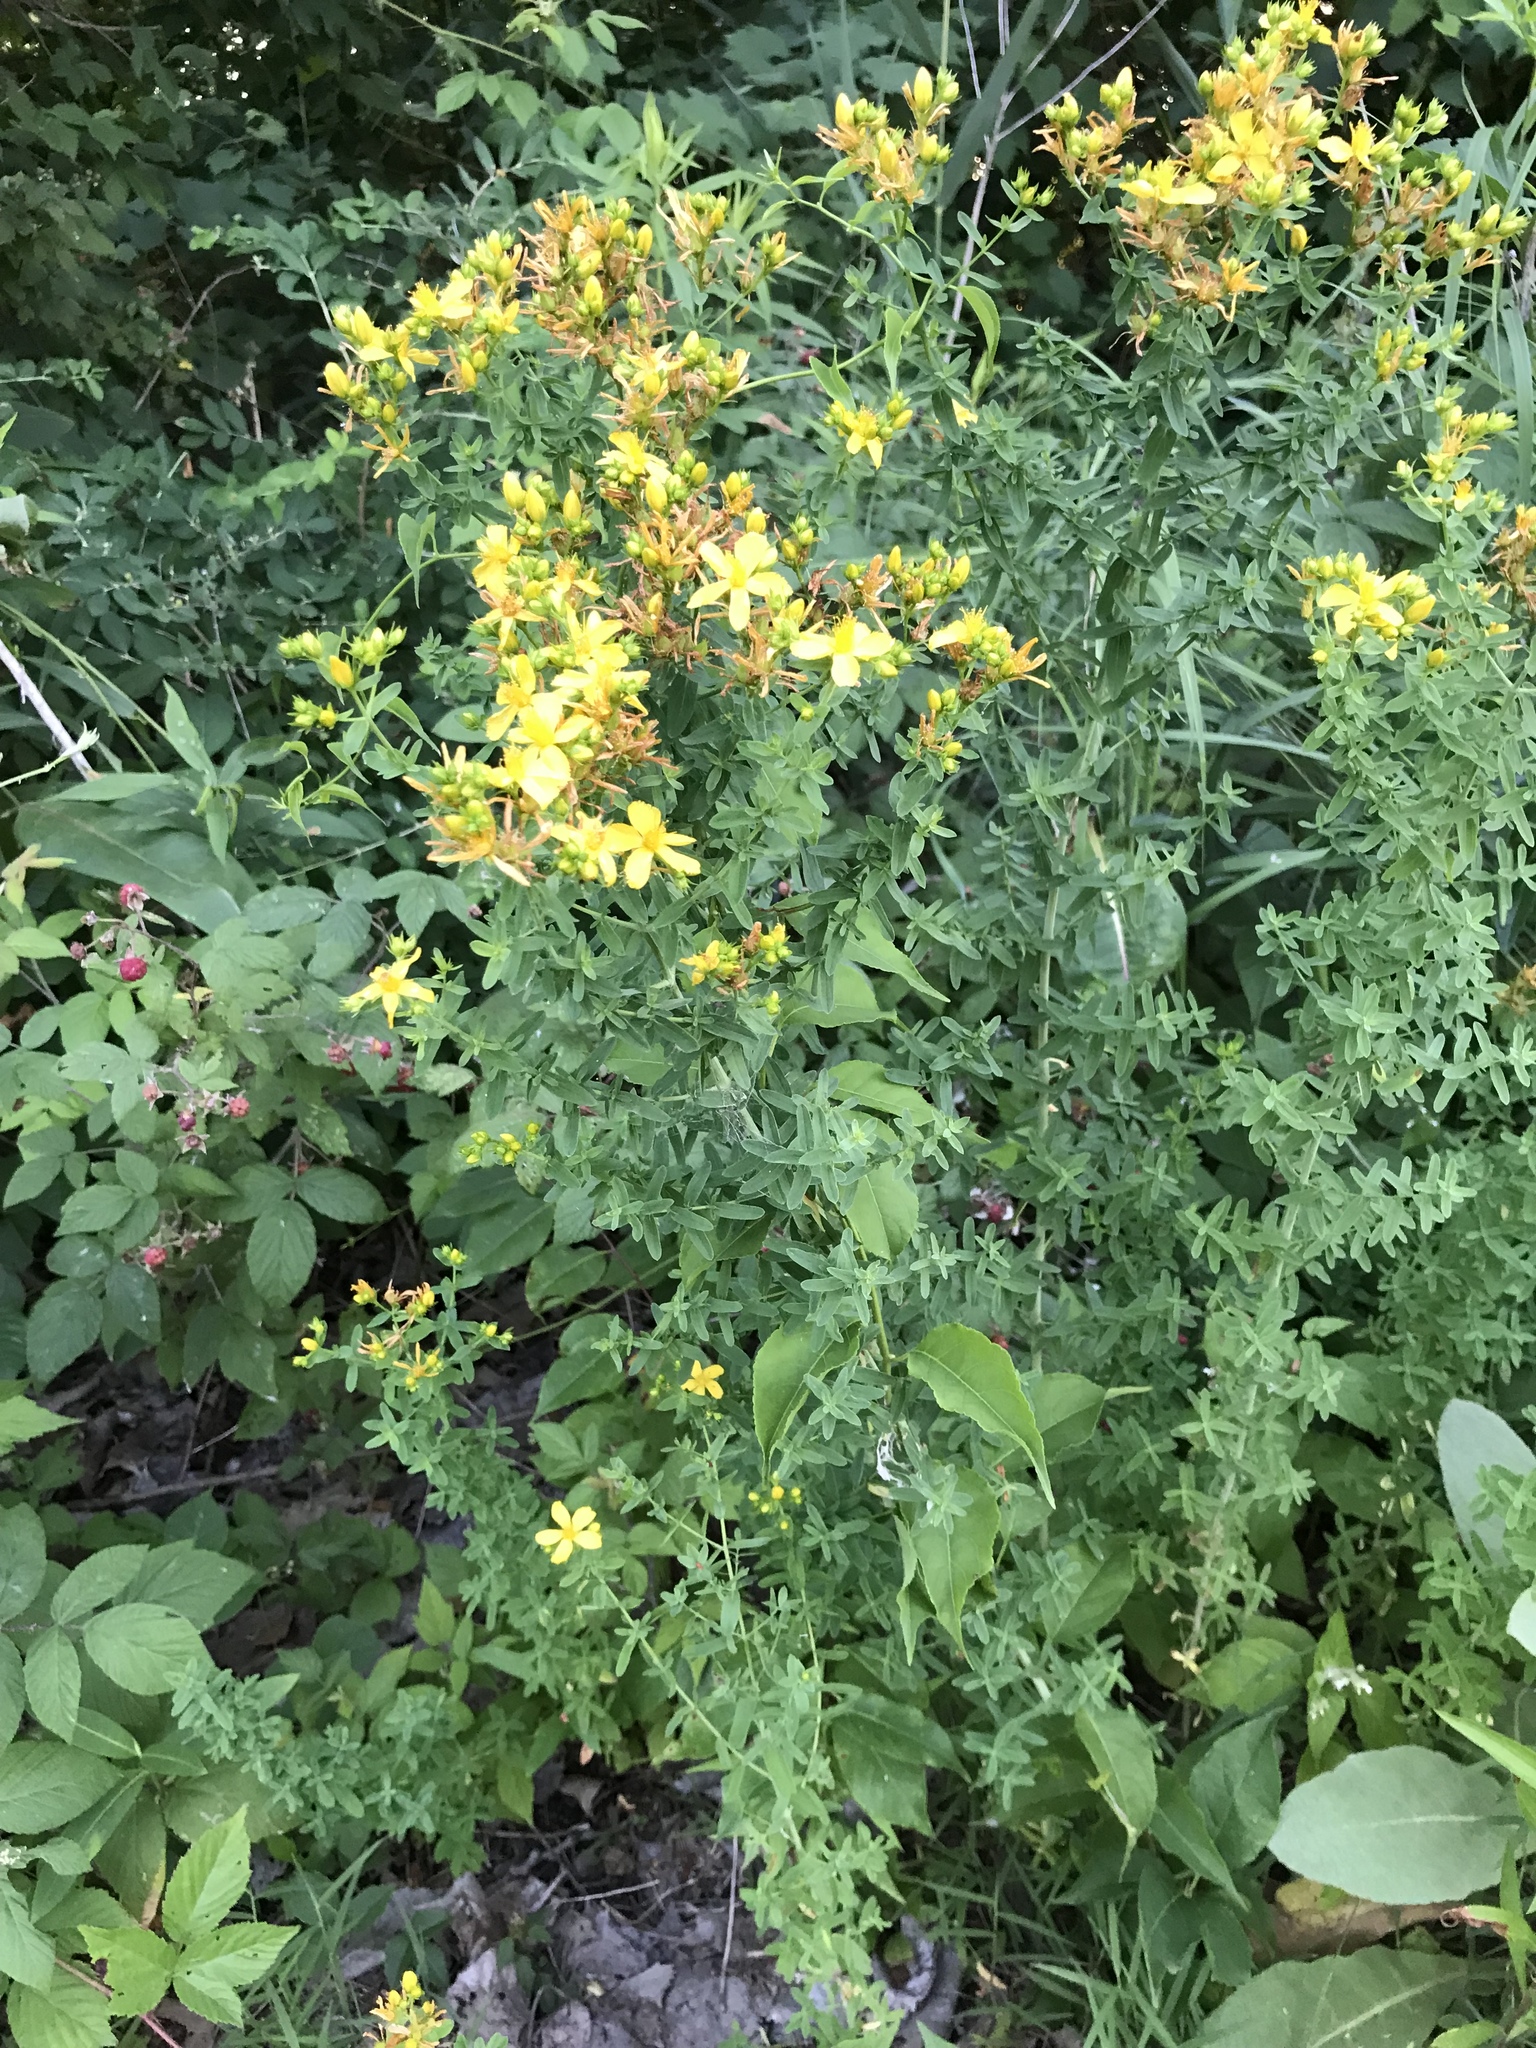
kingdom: Plantae
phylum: Tracheophyta
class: Magnoliopsida
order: Malpighiales
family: Hypericaceae
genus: Hypericum
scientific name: Hypericum perforatum
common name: Common st. johnswort
